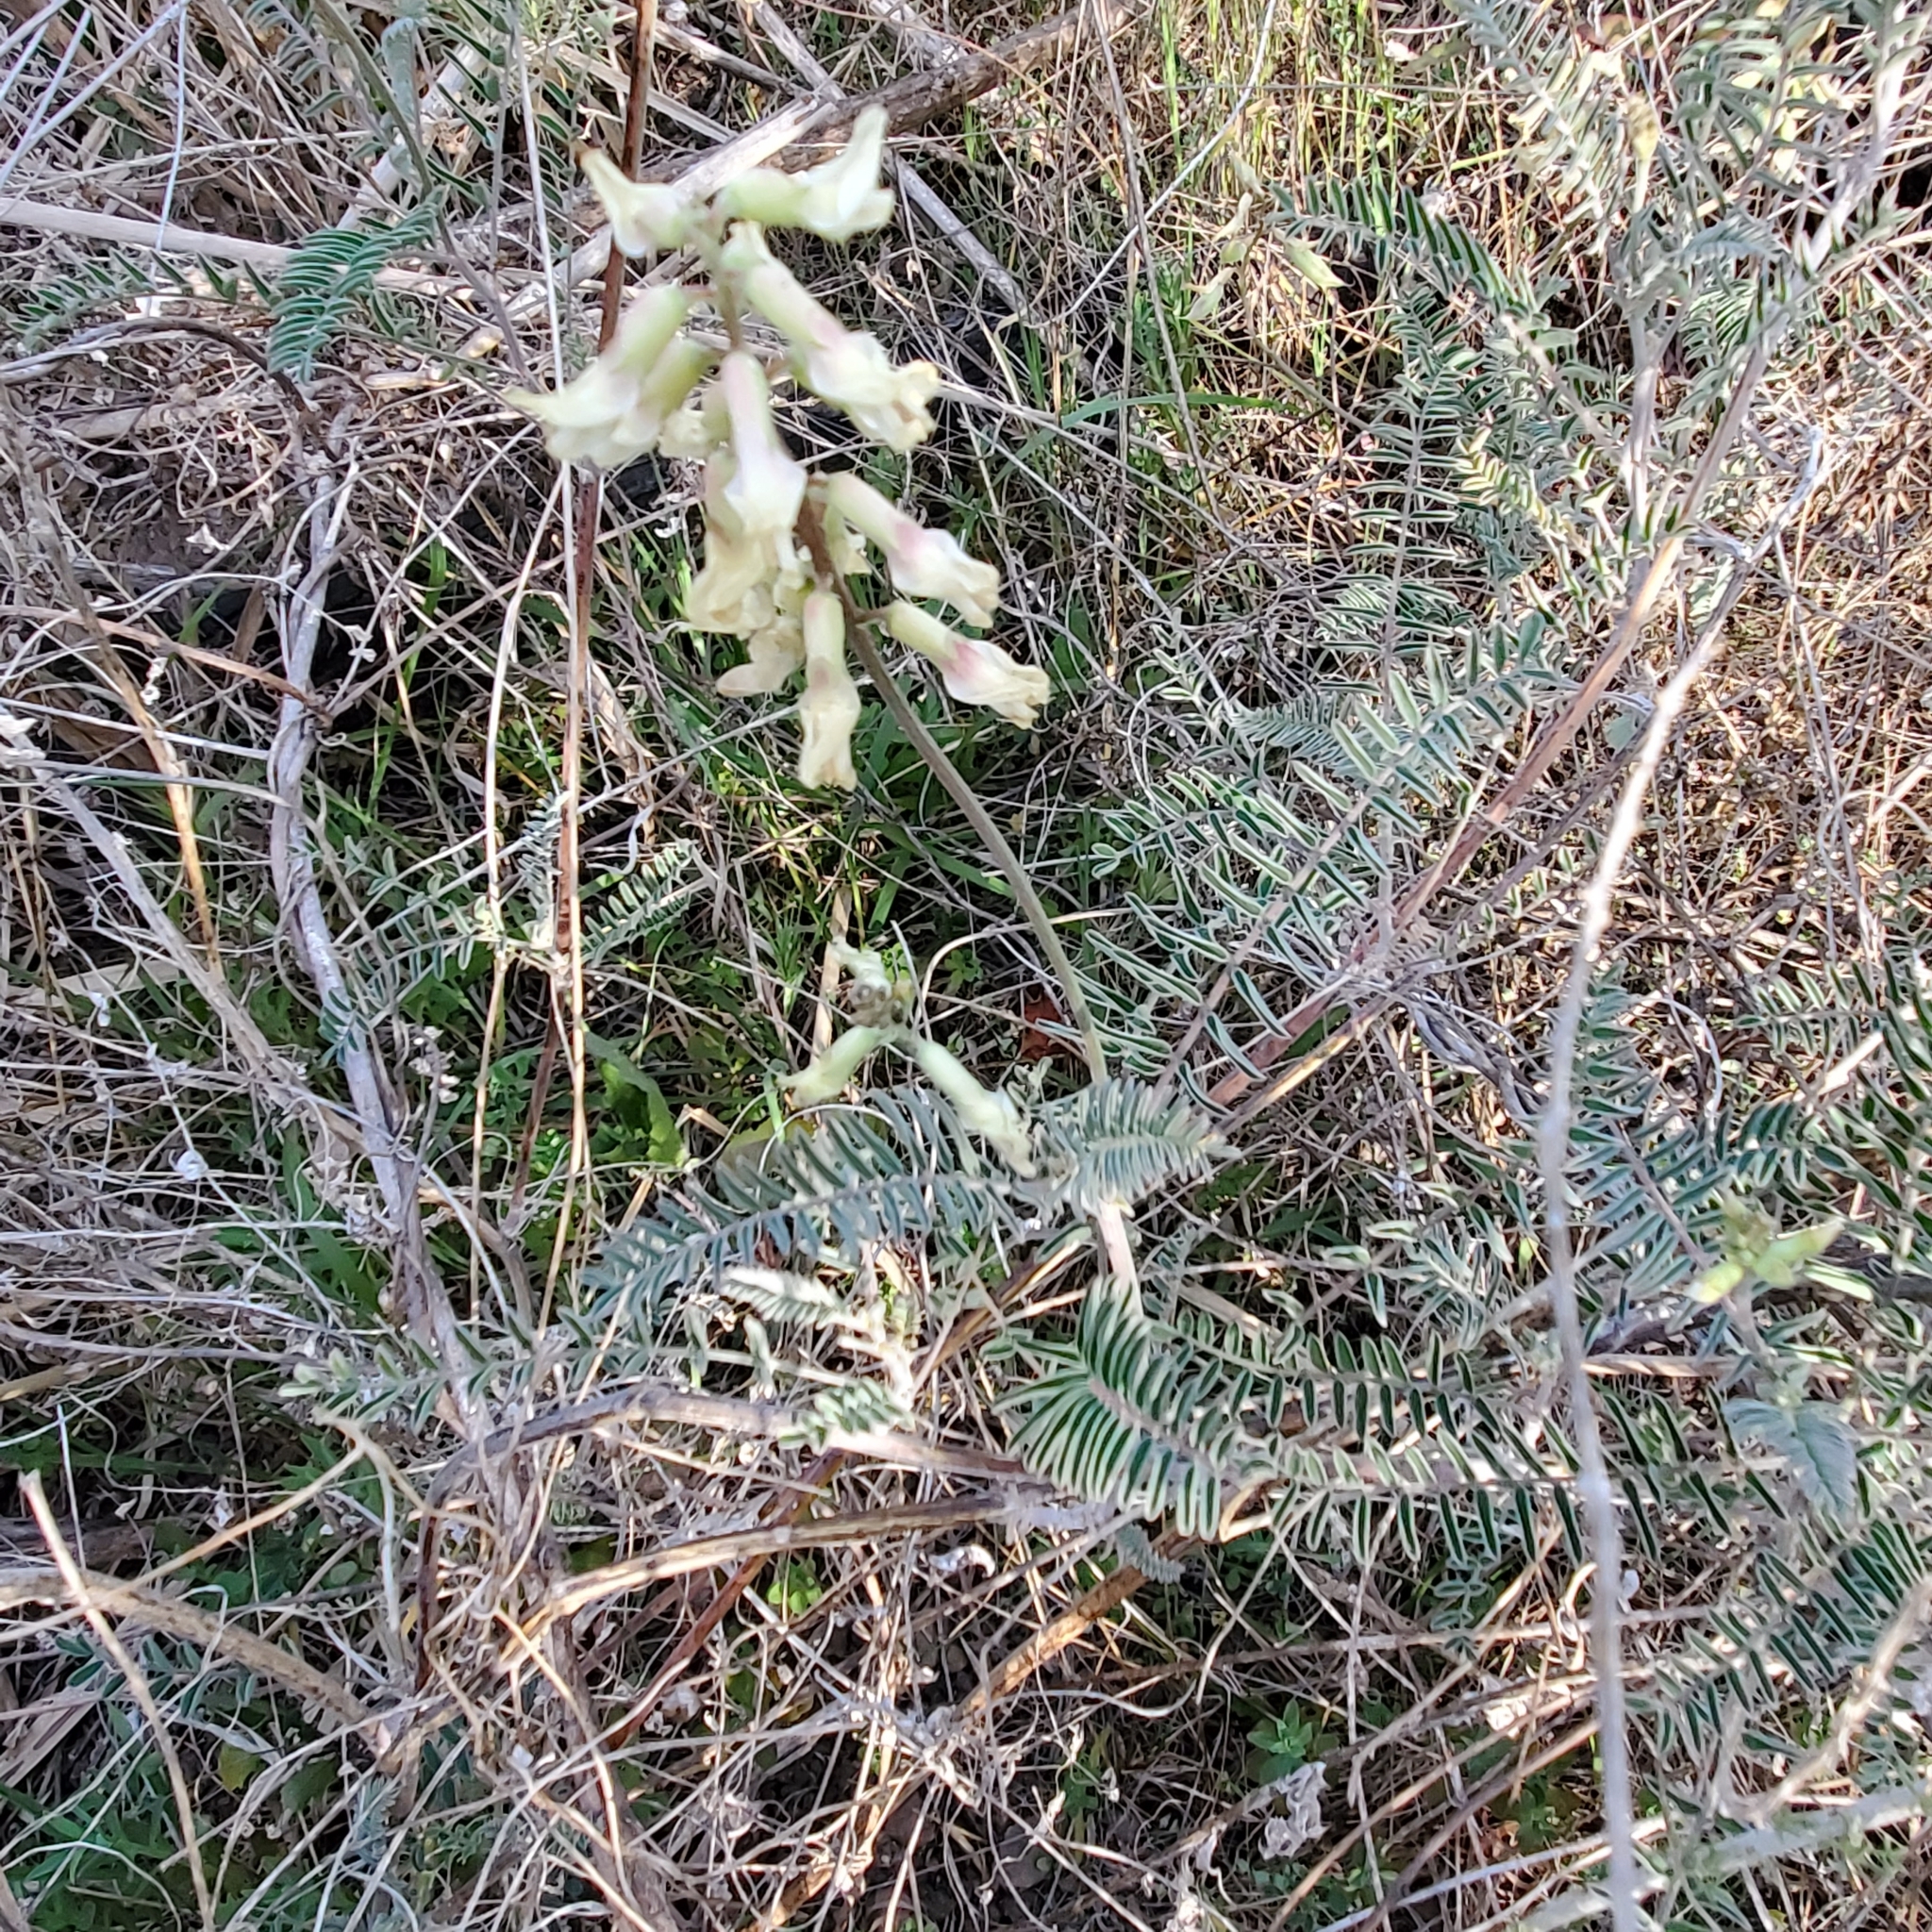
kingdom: Plantae
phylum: Tracheophyta
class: Magnoliopsida
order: Fabales
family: Fabaceae
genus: Astragalus
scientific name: Astragalus trichopodus
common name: Santa barbara milk-vetch
